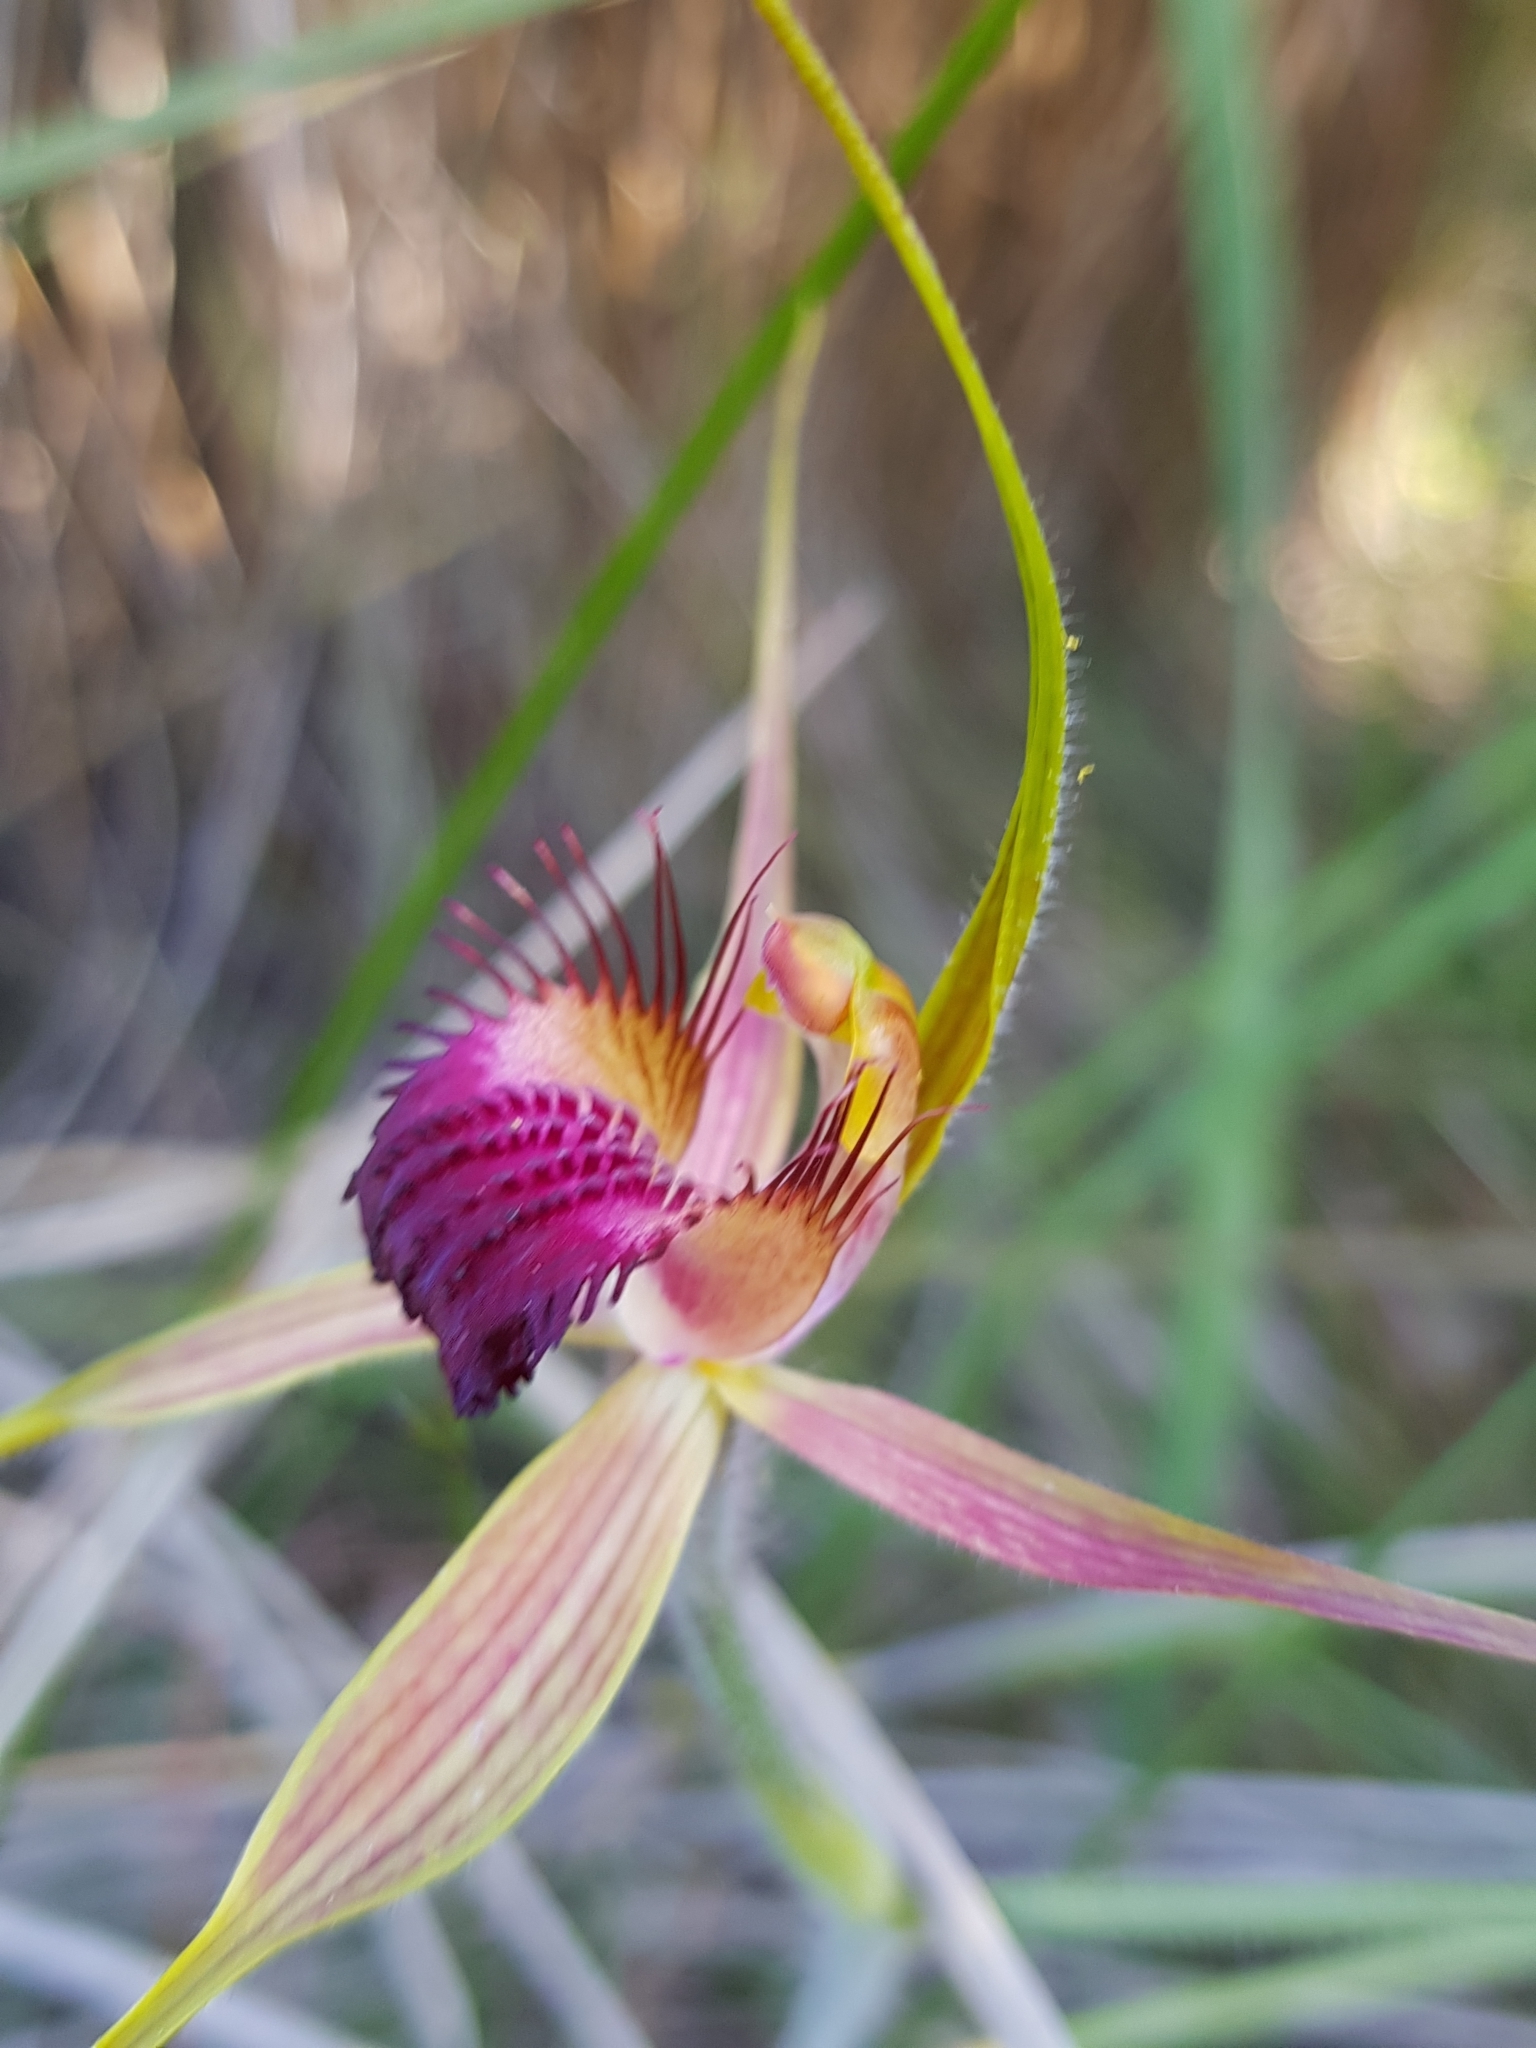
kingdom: Plantae
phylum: Tracheophyta
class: Liliopsida
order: Asparagales
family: Orchidaceae
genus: Caladenia
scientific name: Caladenia pectinata
